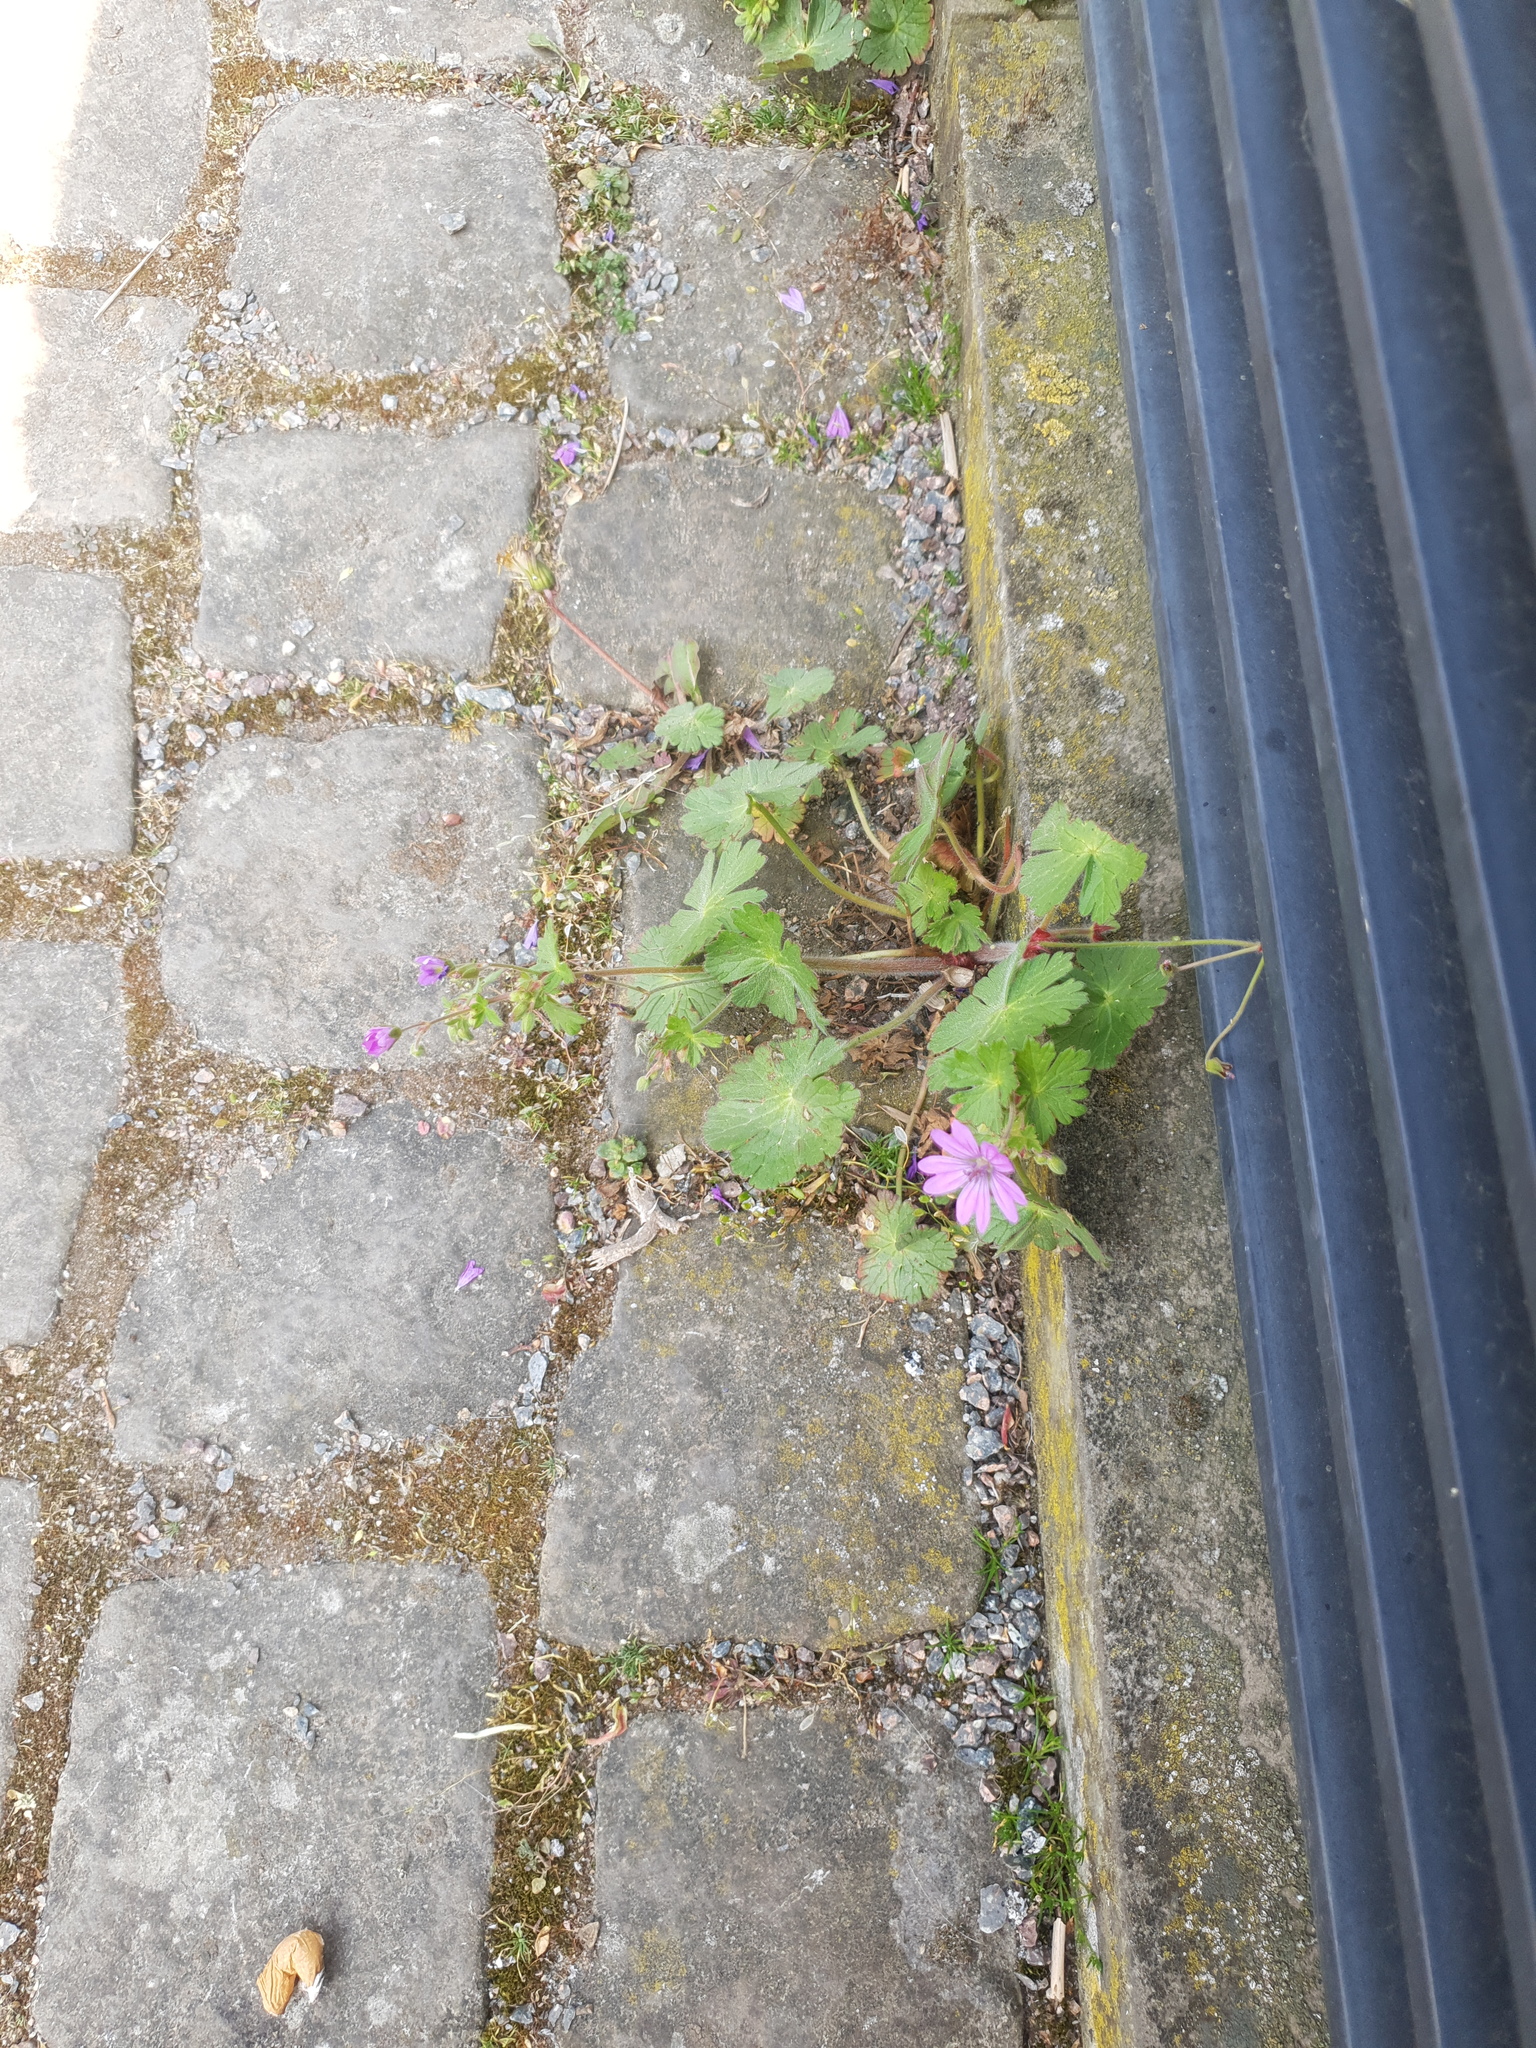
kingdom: Plantae
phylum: Tracheophyta
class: Magnoliopsida
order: Geraniales
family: Geraniaceae
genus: Geranium
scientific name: Geranium pyrenaicum
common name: Hedgerow crane's-bill
